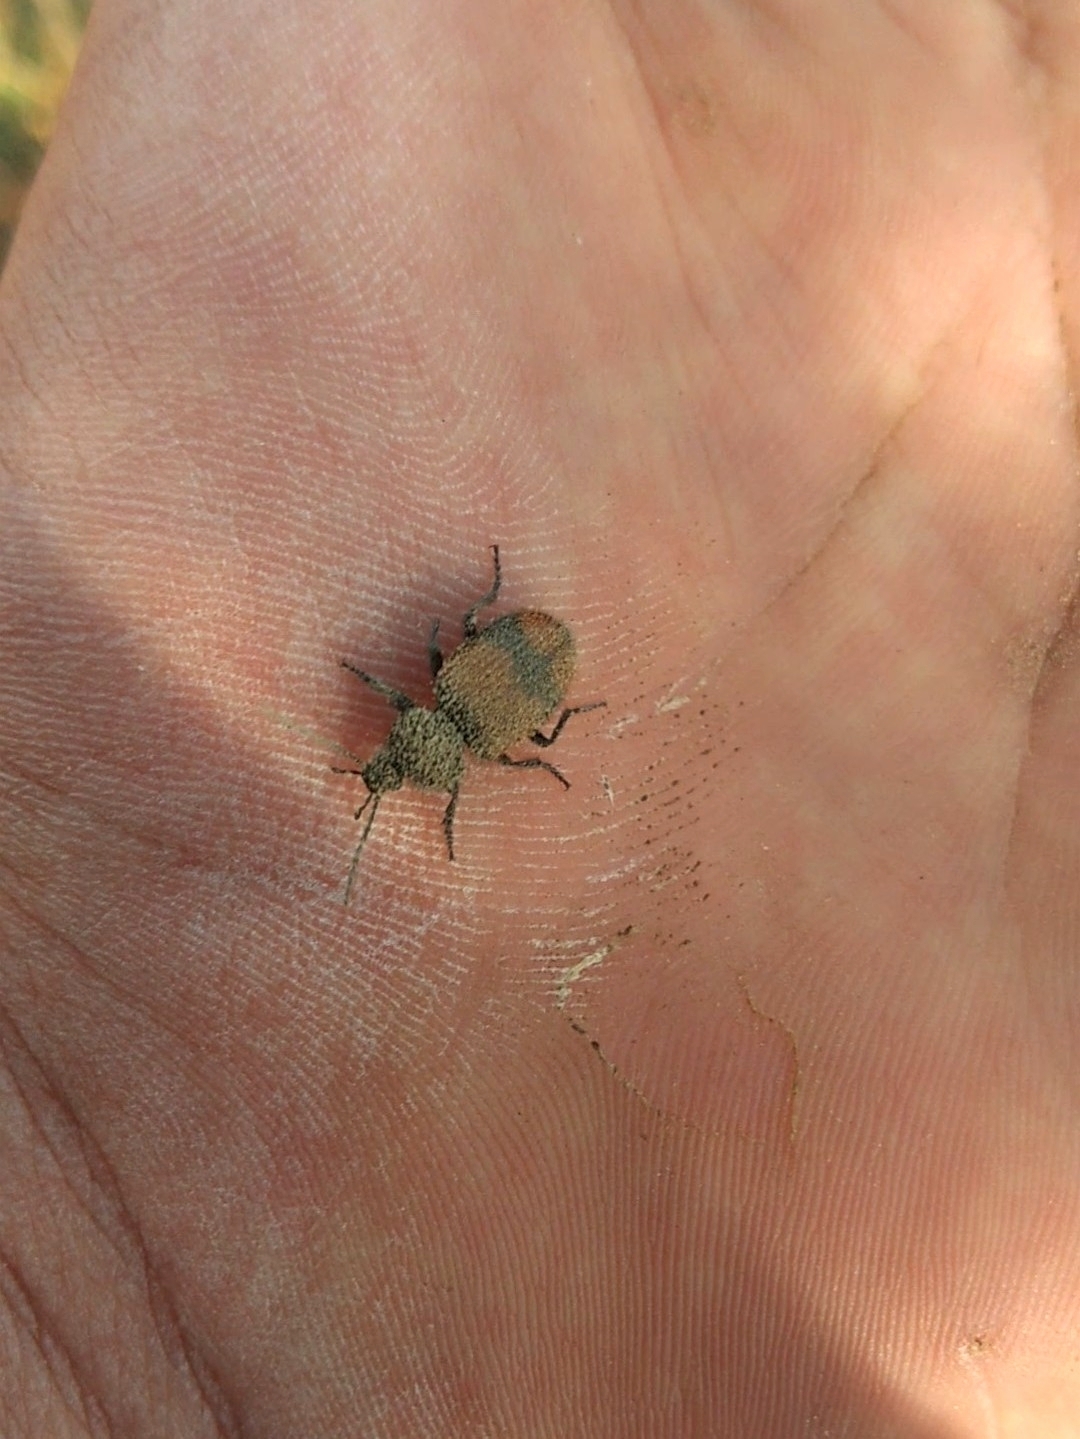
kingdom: Animalia
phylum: Arthropoda
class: Insecta
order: Coleoptera
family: Carabidae
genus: Panagaeus
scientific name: Panagaeus sallei
